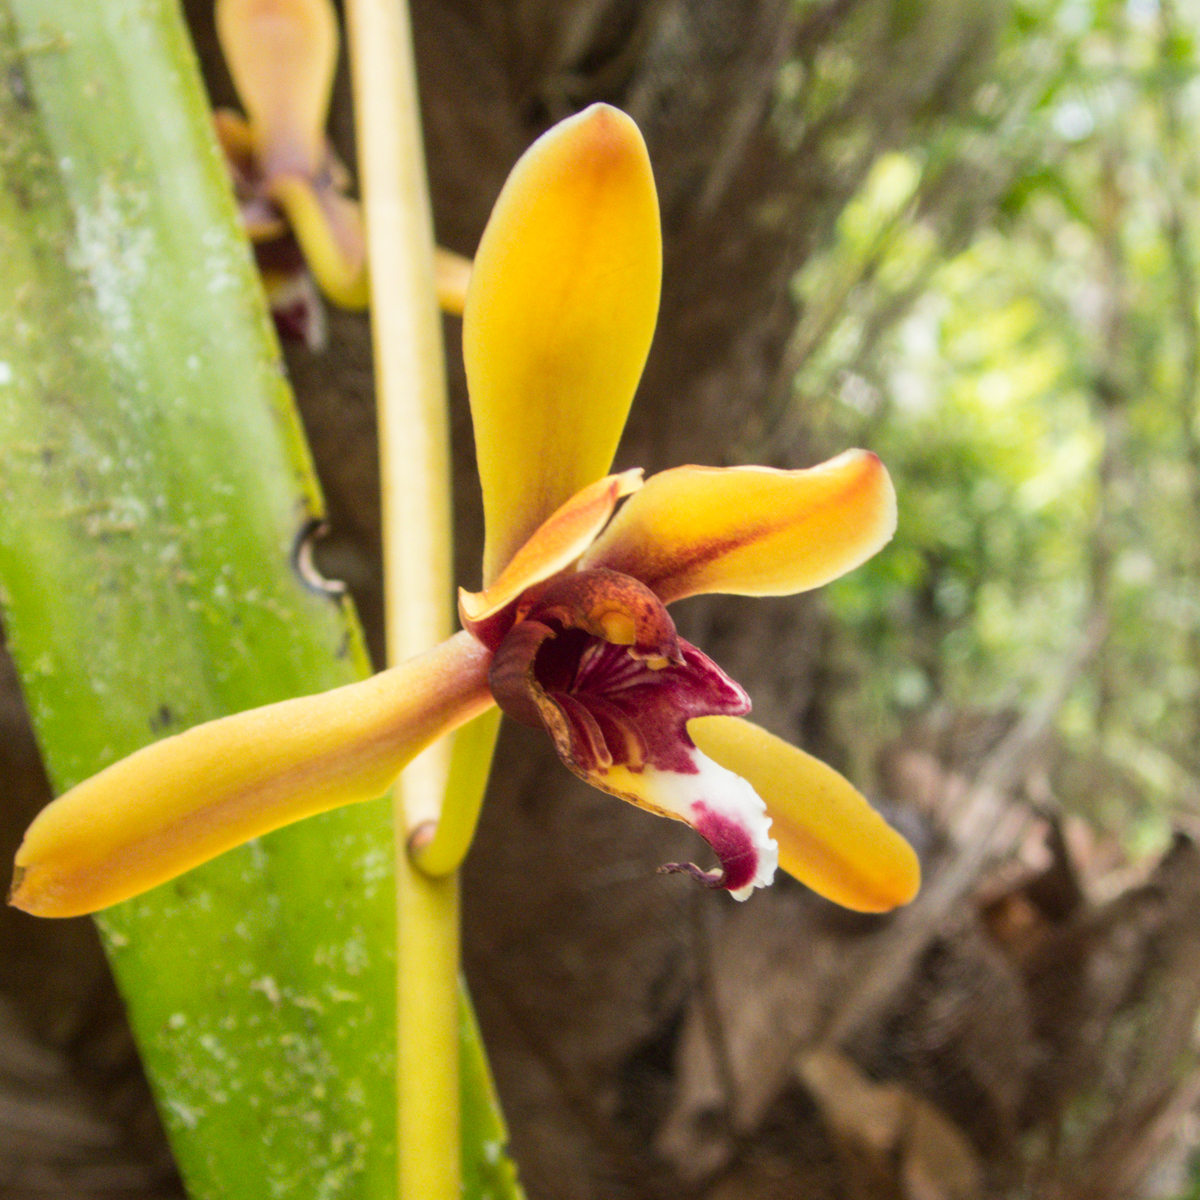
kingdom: Plantae
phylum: Tracheophyta
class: Liliopsida
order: Asparagales
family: Orchidaceae
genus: Cymbidium
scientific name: Cymbidium finlaysonianum
